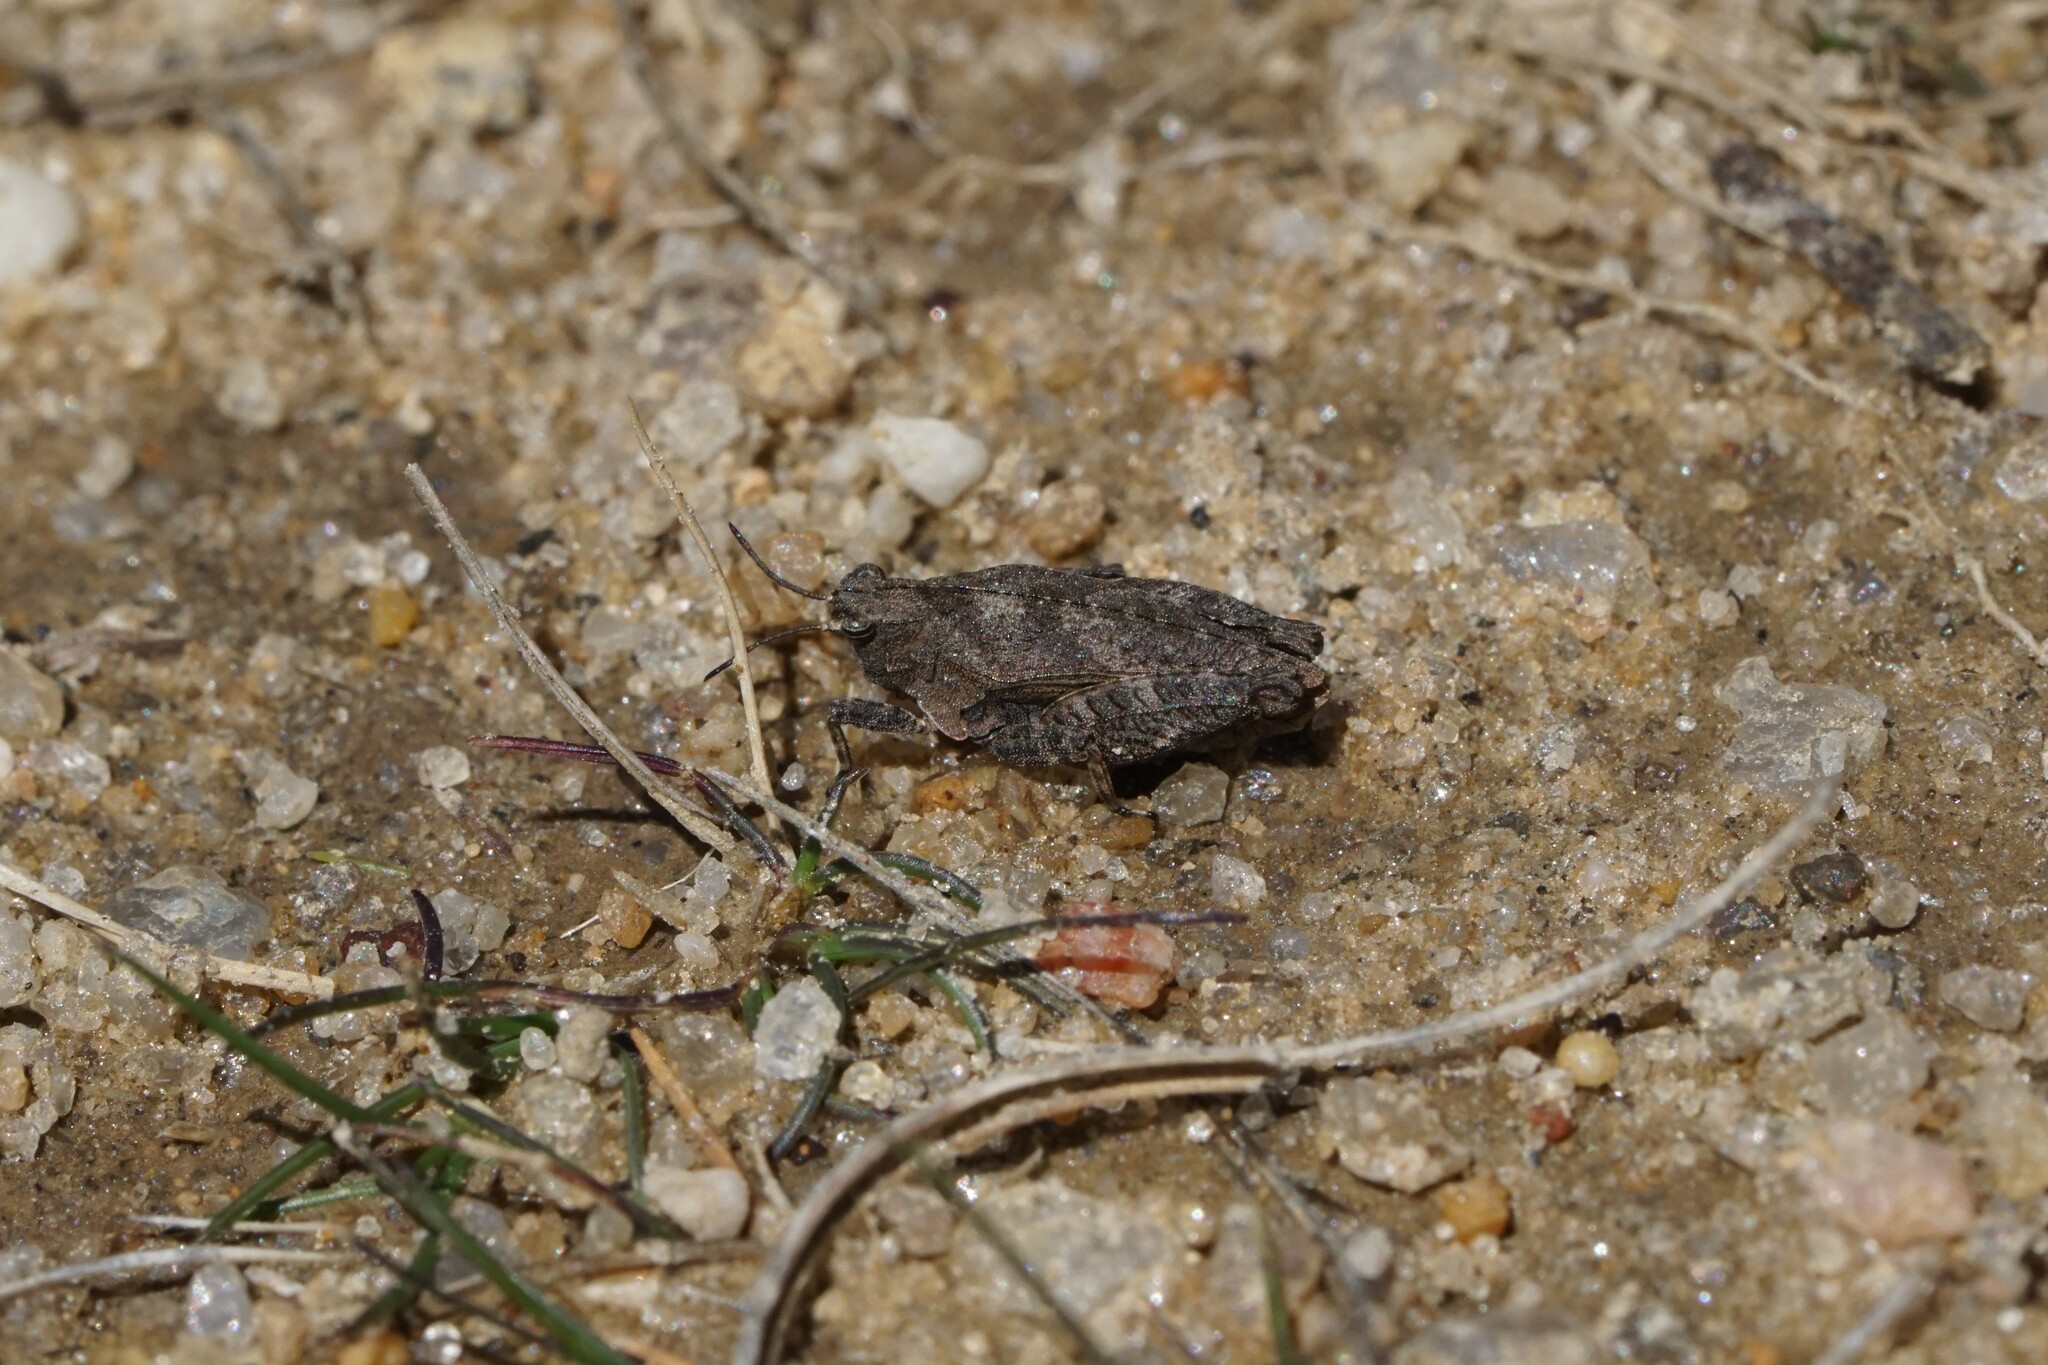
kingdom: Animalia
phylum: Arthropoda
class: Insecta
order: Orthoptera
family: Tetrigidae
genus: Nomotettix
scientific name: Nomotettix cristatus
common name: Crested grouse locust
